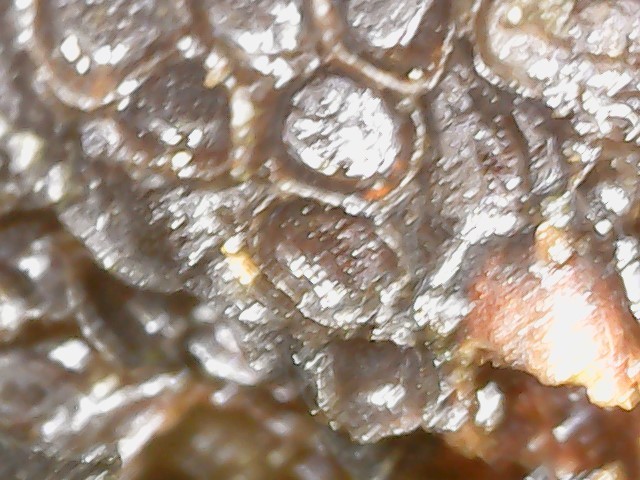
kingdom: Fungi
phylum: Basidiomycota
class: Pucciniomycetes
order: Pucciniales
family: Pucciniastraceae
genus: Thekopsora
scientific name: Thekopsora areolata
